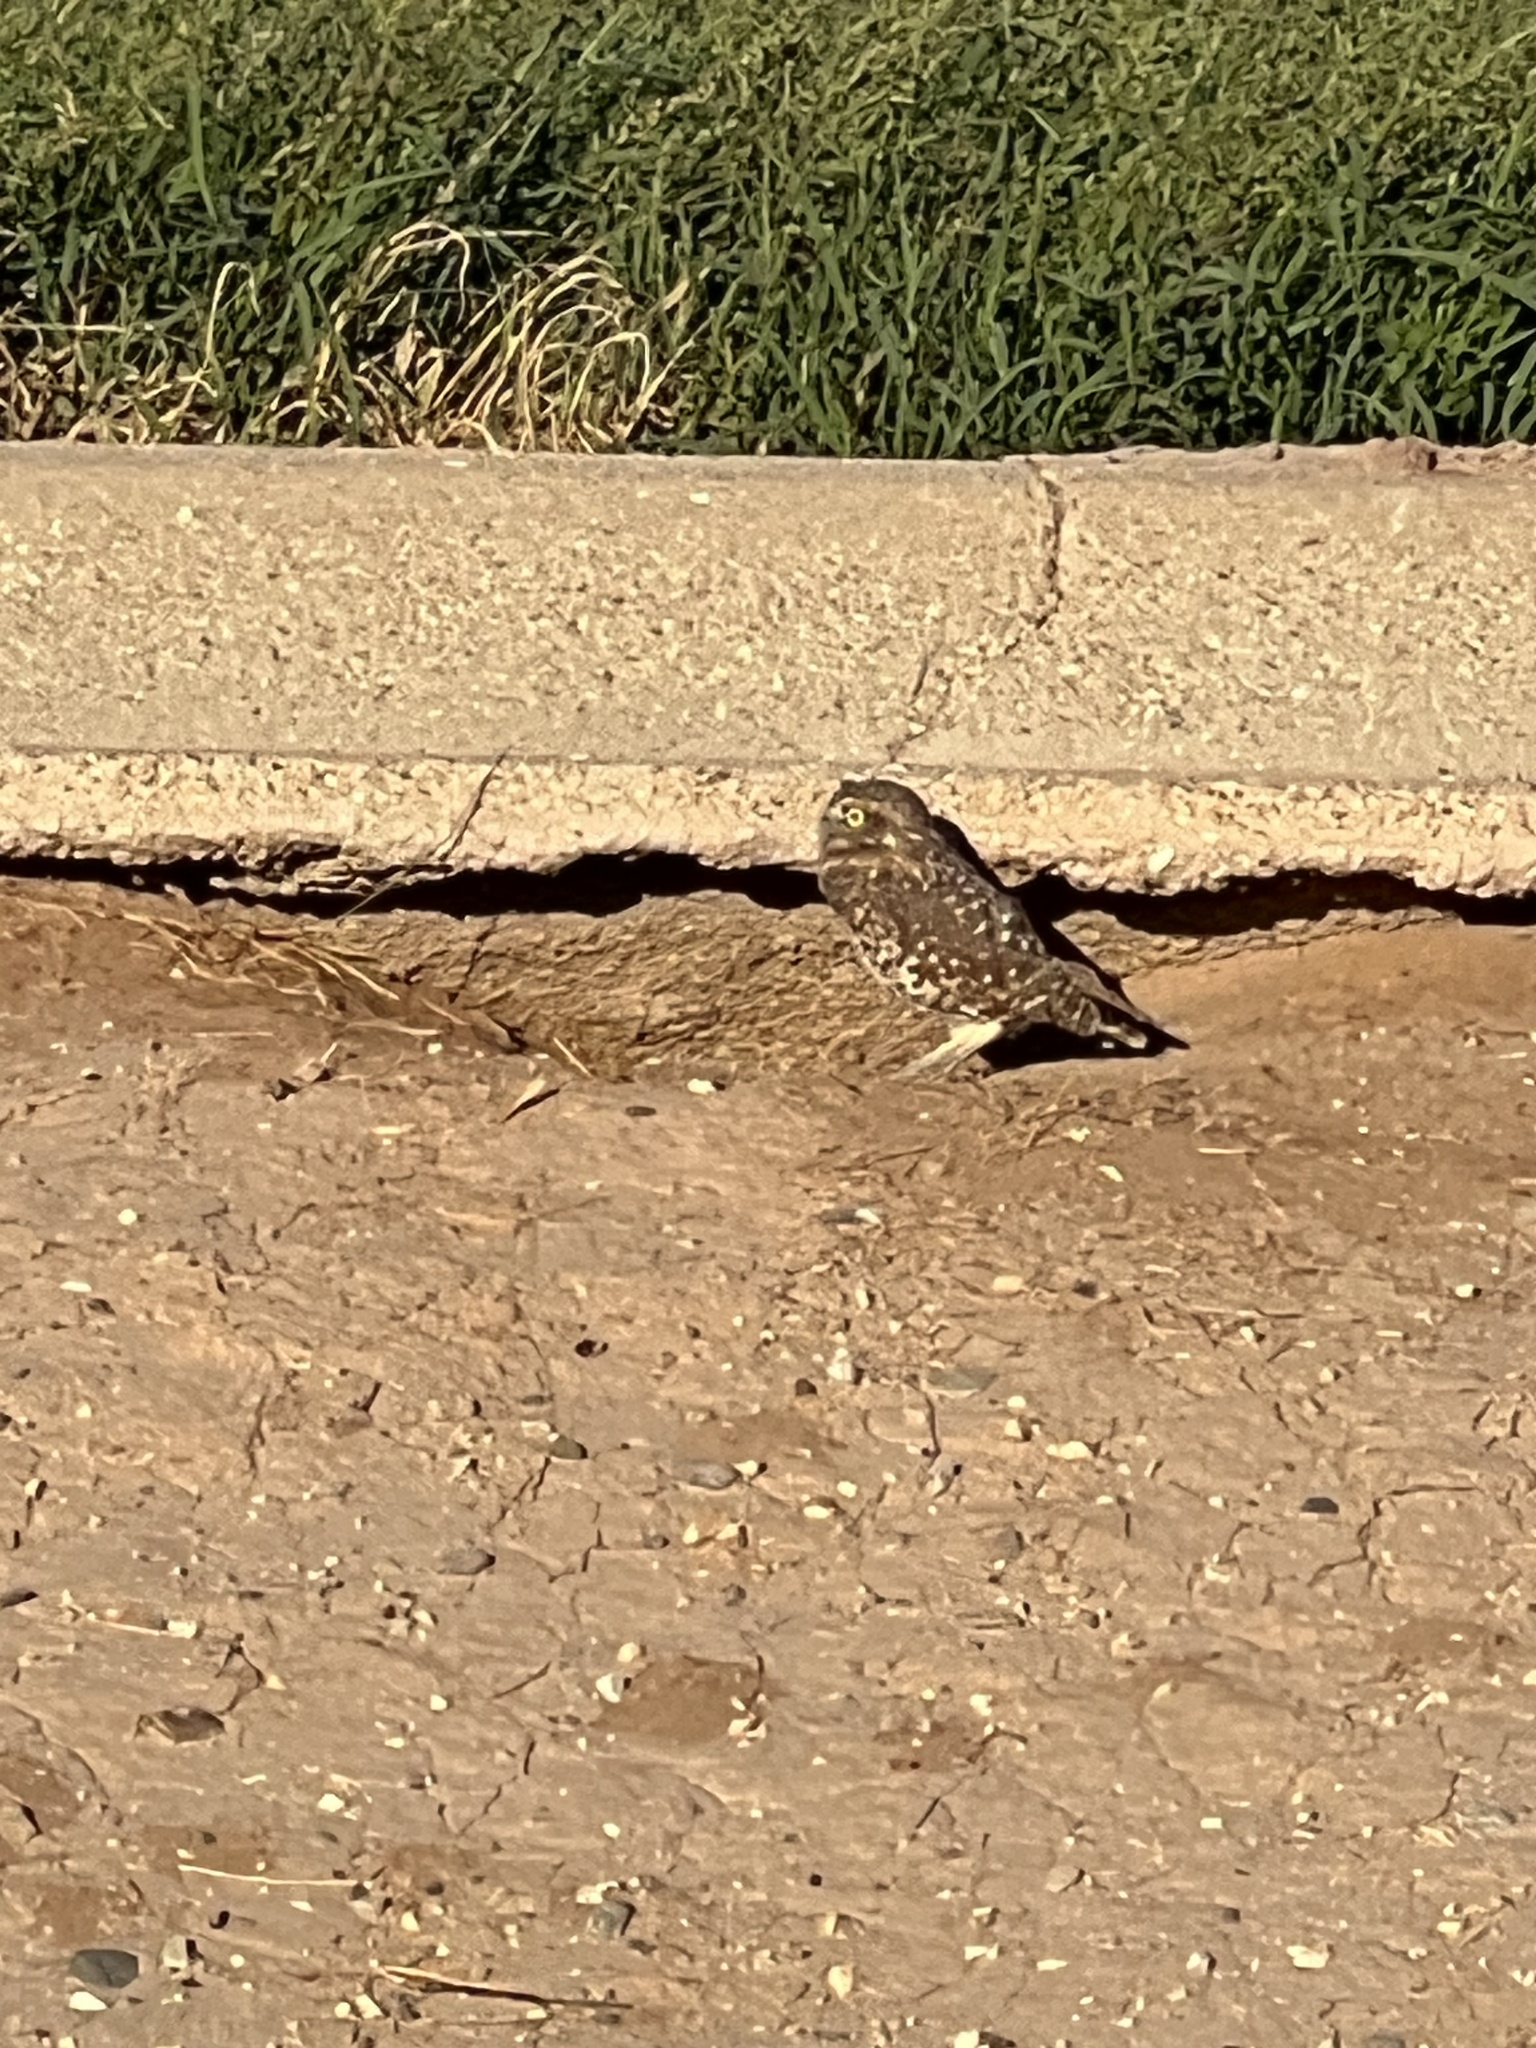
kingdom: Animalia
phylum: Chordata
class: Aves
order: Strigiformes
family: Strigidae
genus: Athene
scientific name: Athene cunicularia
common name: Burrowing owl
